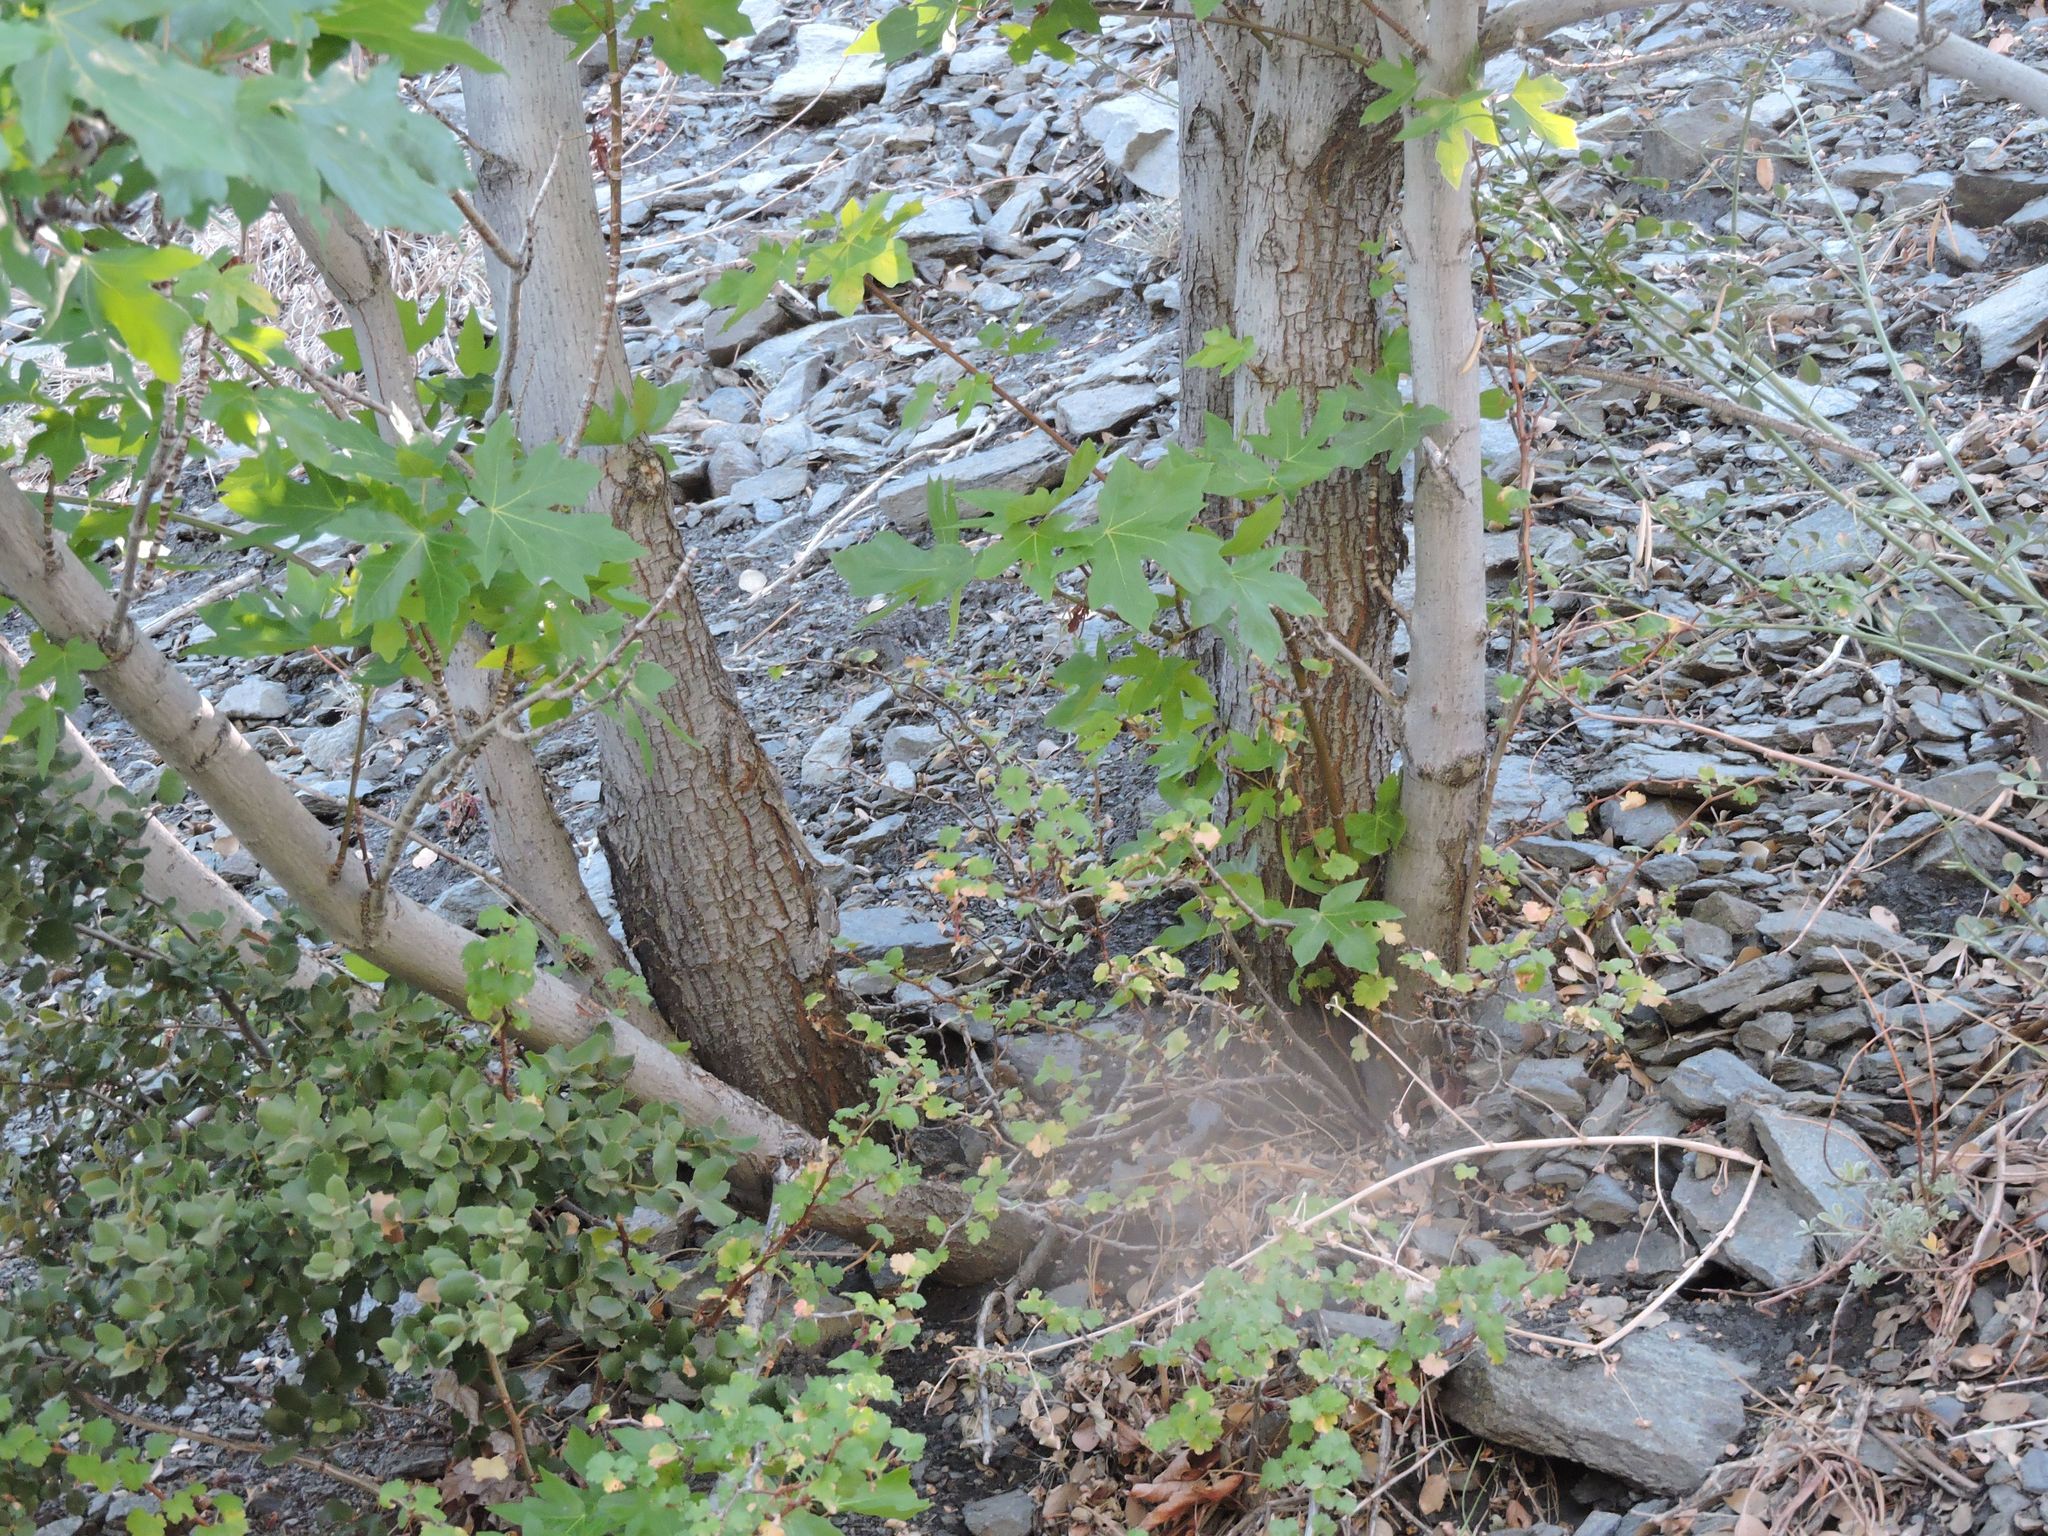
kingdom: Plantae
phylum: Tracheophyta
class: Magnoliopsida
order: Sapindales
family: Sapindaceae
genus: Acer
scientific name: Acer macrophyllum
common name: Oregon maple
